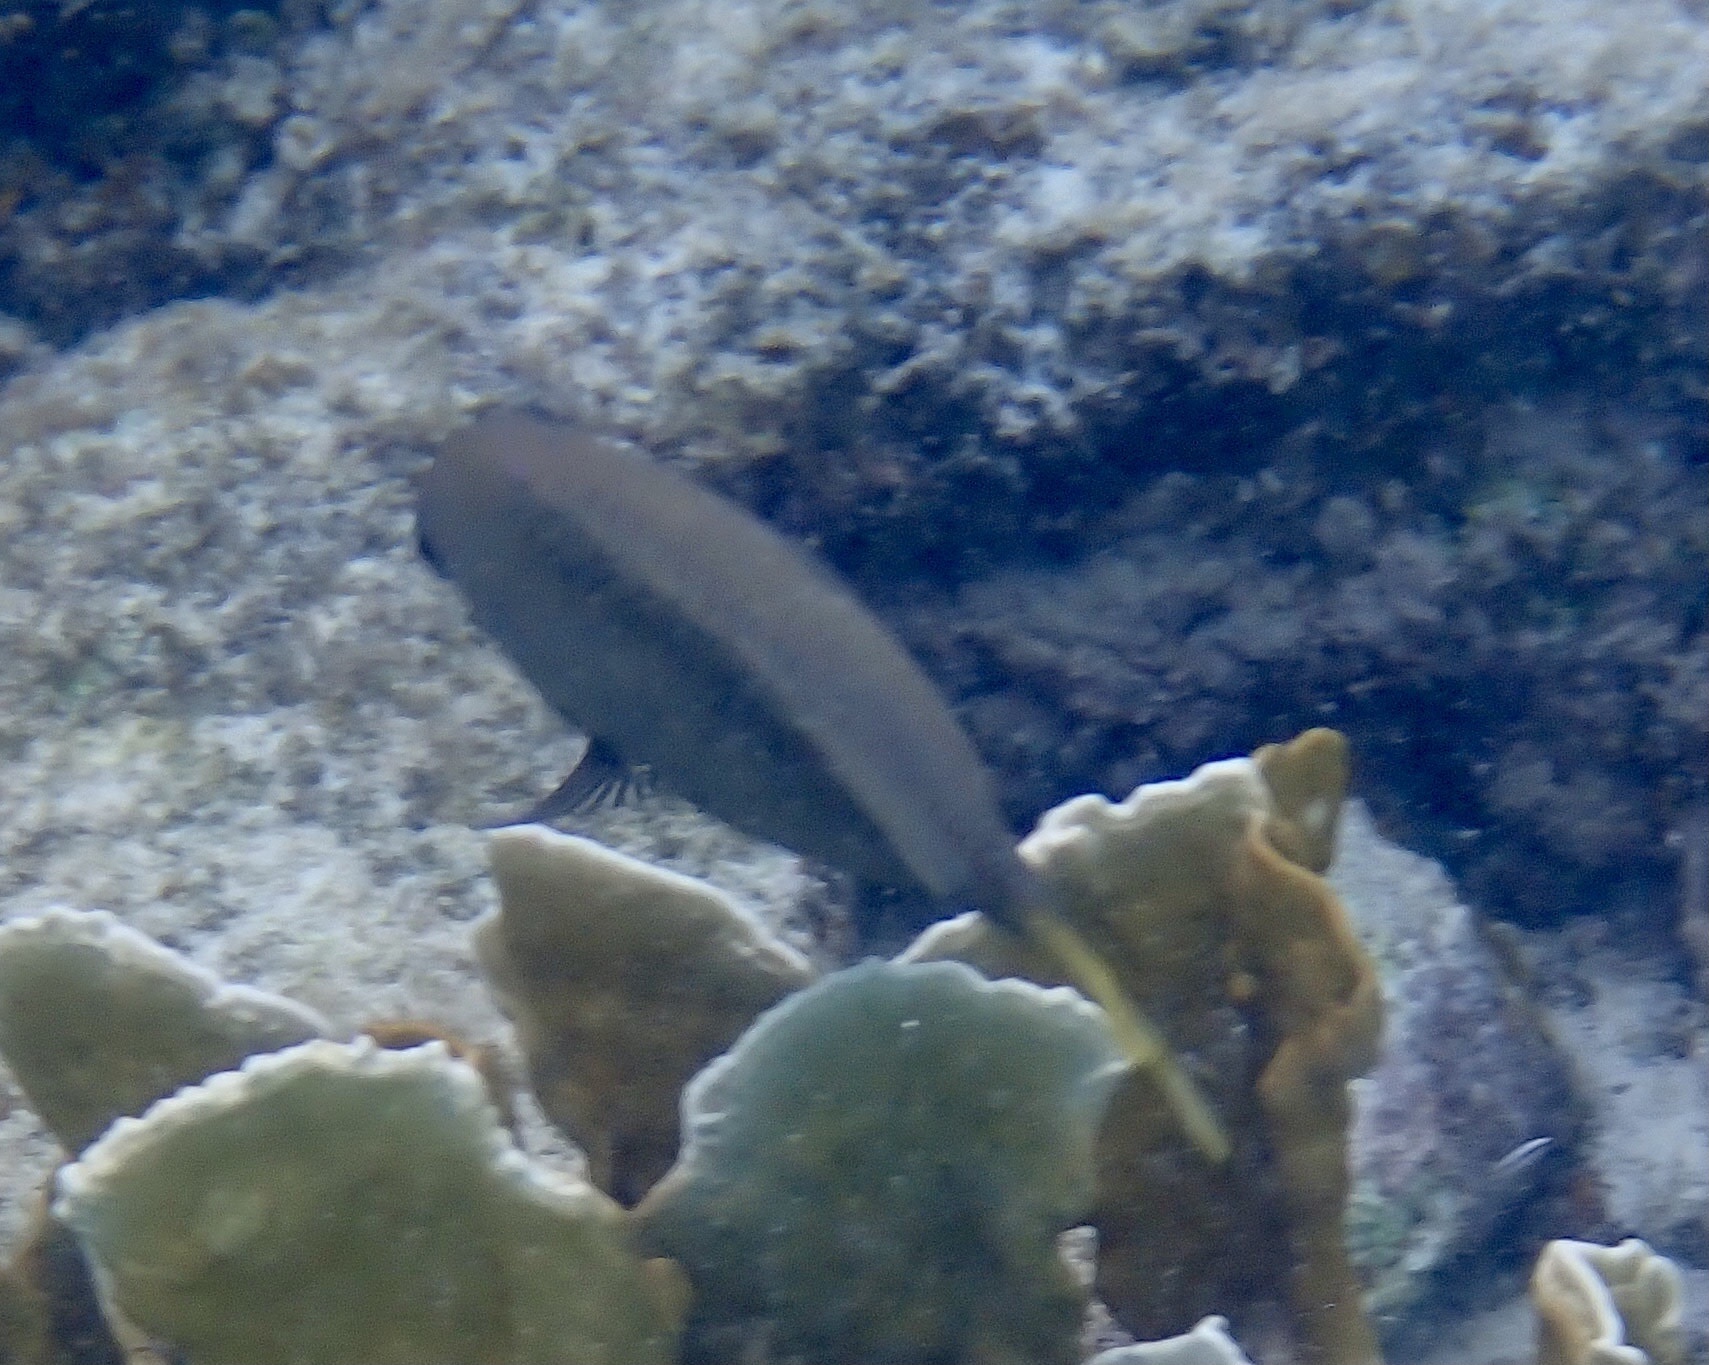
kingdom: Animalia
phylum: Chordata
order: Perciformes
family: Pomacentridae
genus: Microspathodon
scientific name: Microspathodon chrysurus
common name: Yellowtail damselfish
